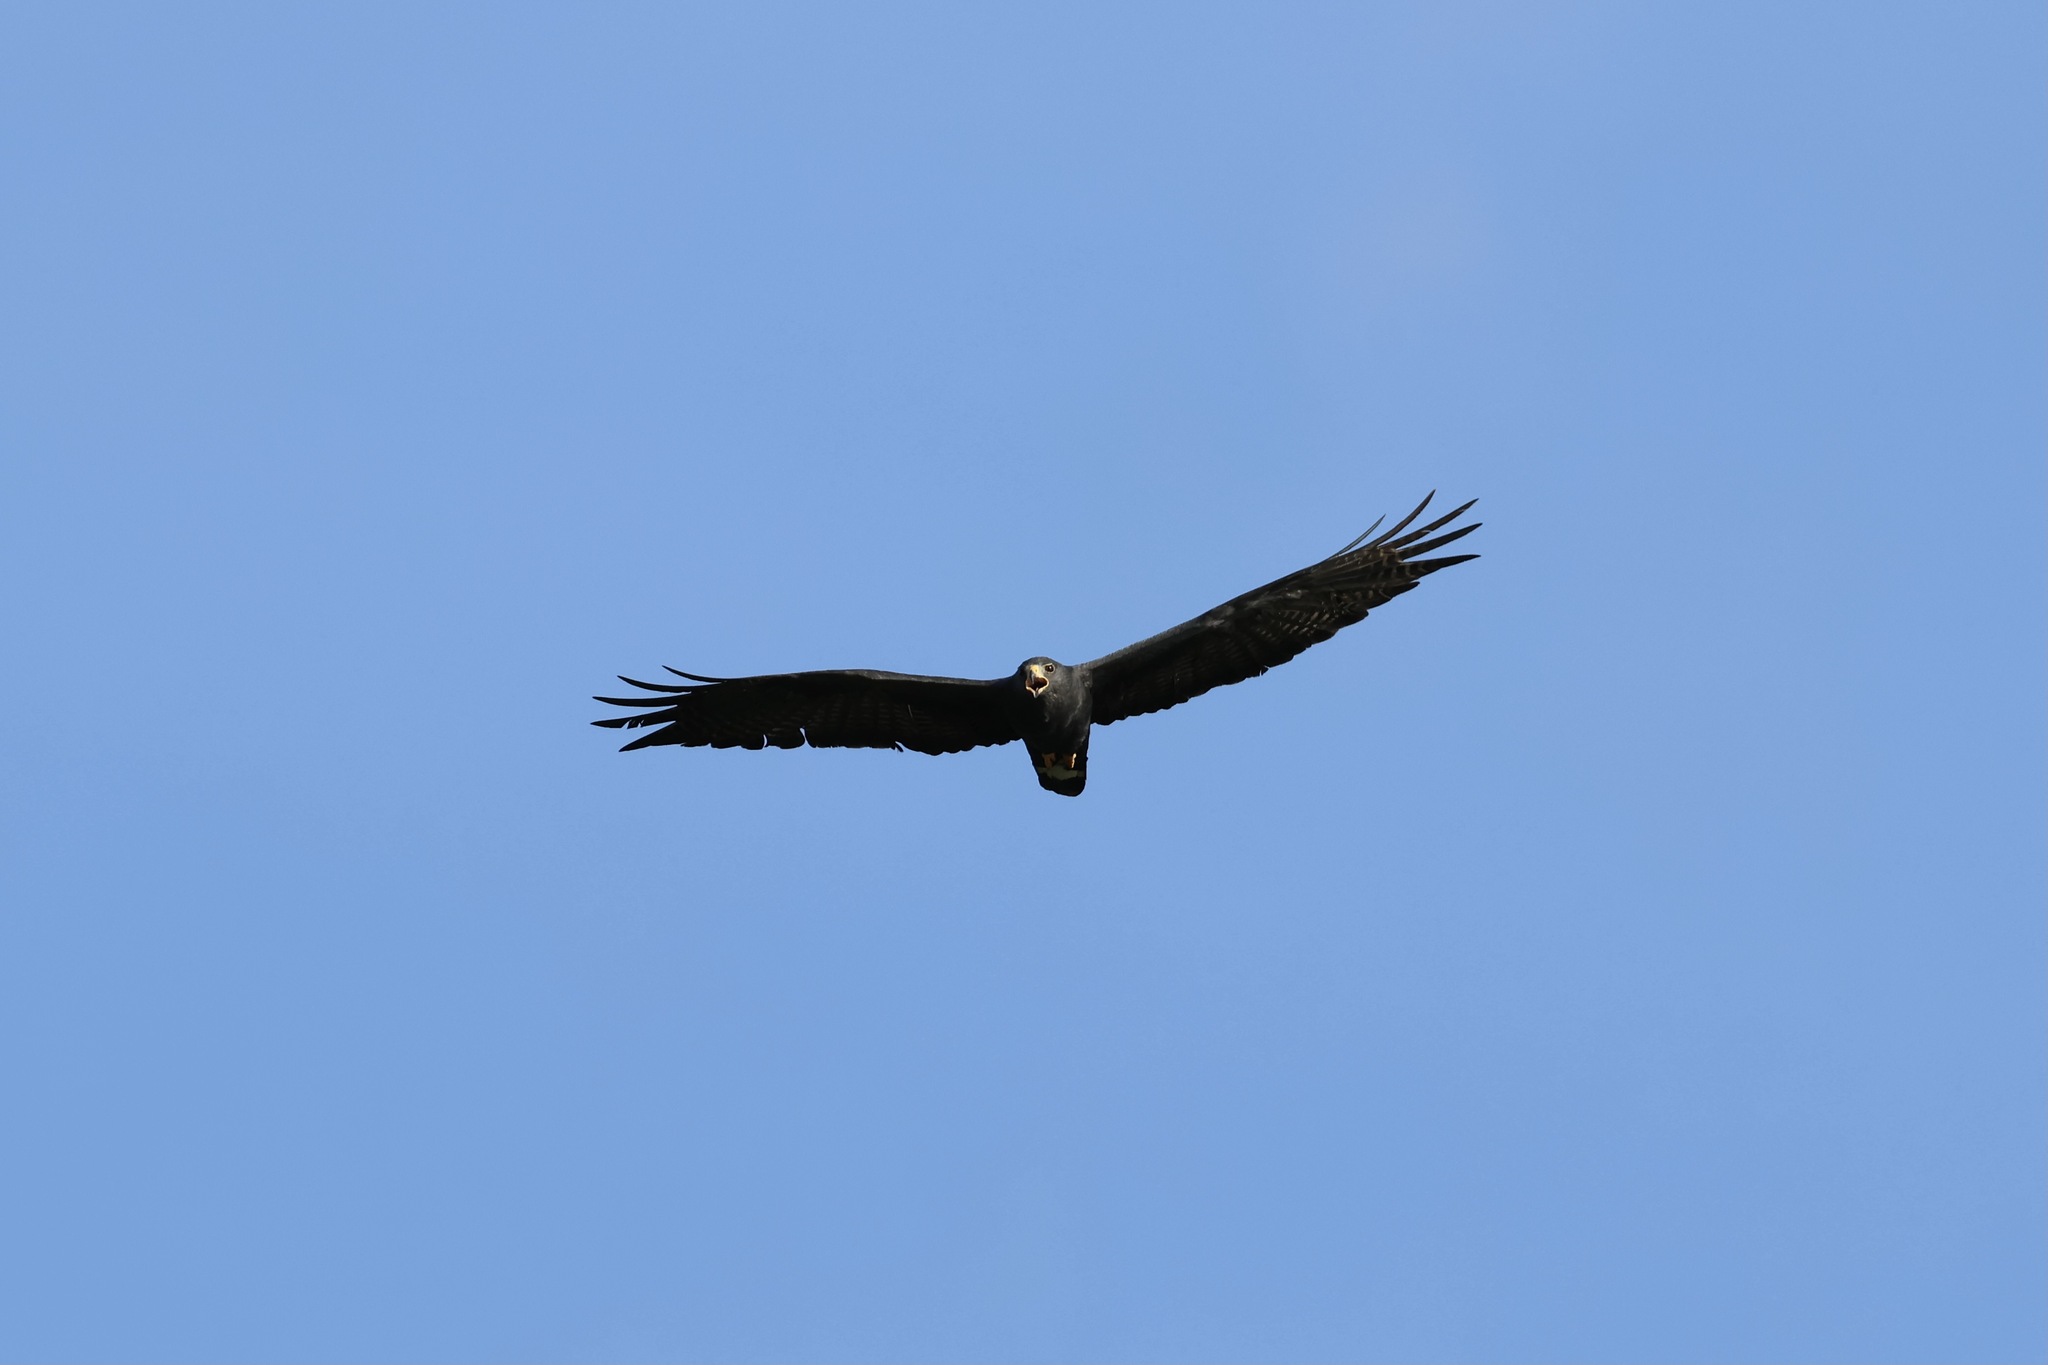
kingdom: Animalia
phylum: Chordata
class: Aves
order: Accipitriformes
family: Accipitridae
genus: Buteo
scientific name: Buteo albonotatus
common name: Zone-tailed hawk
